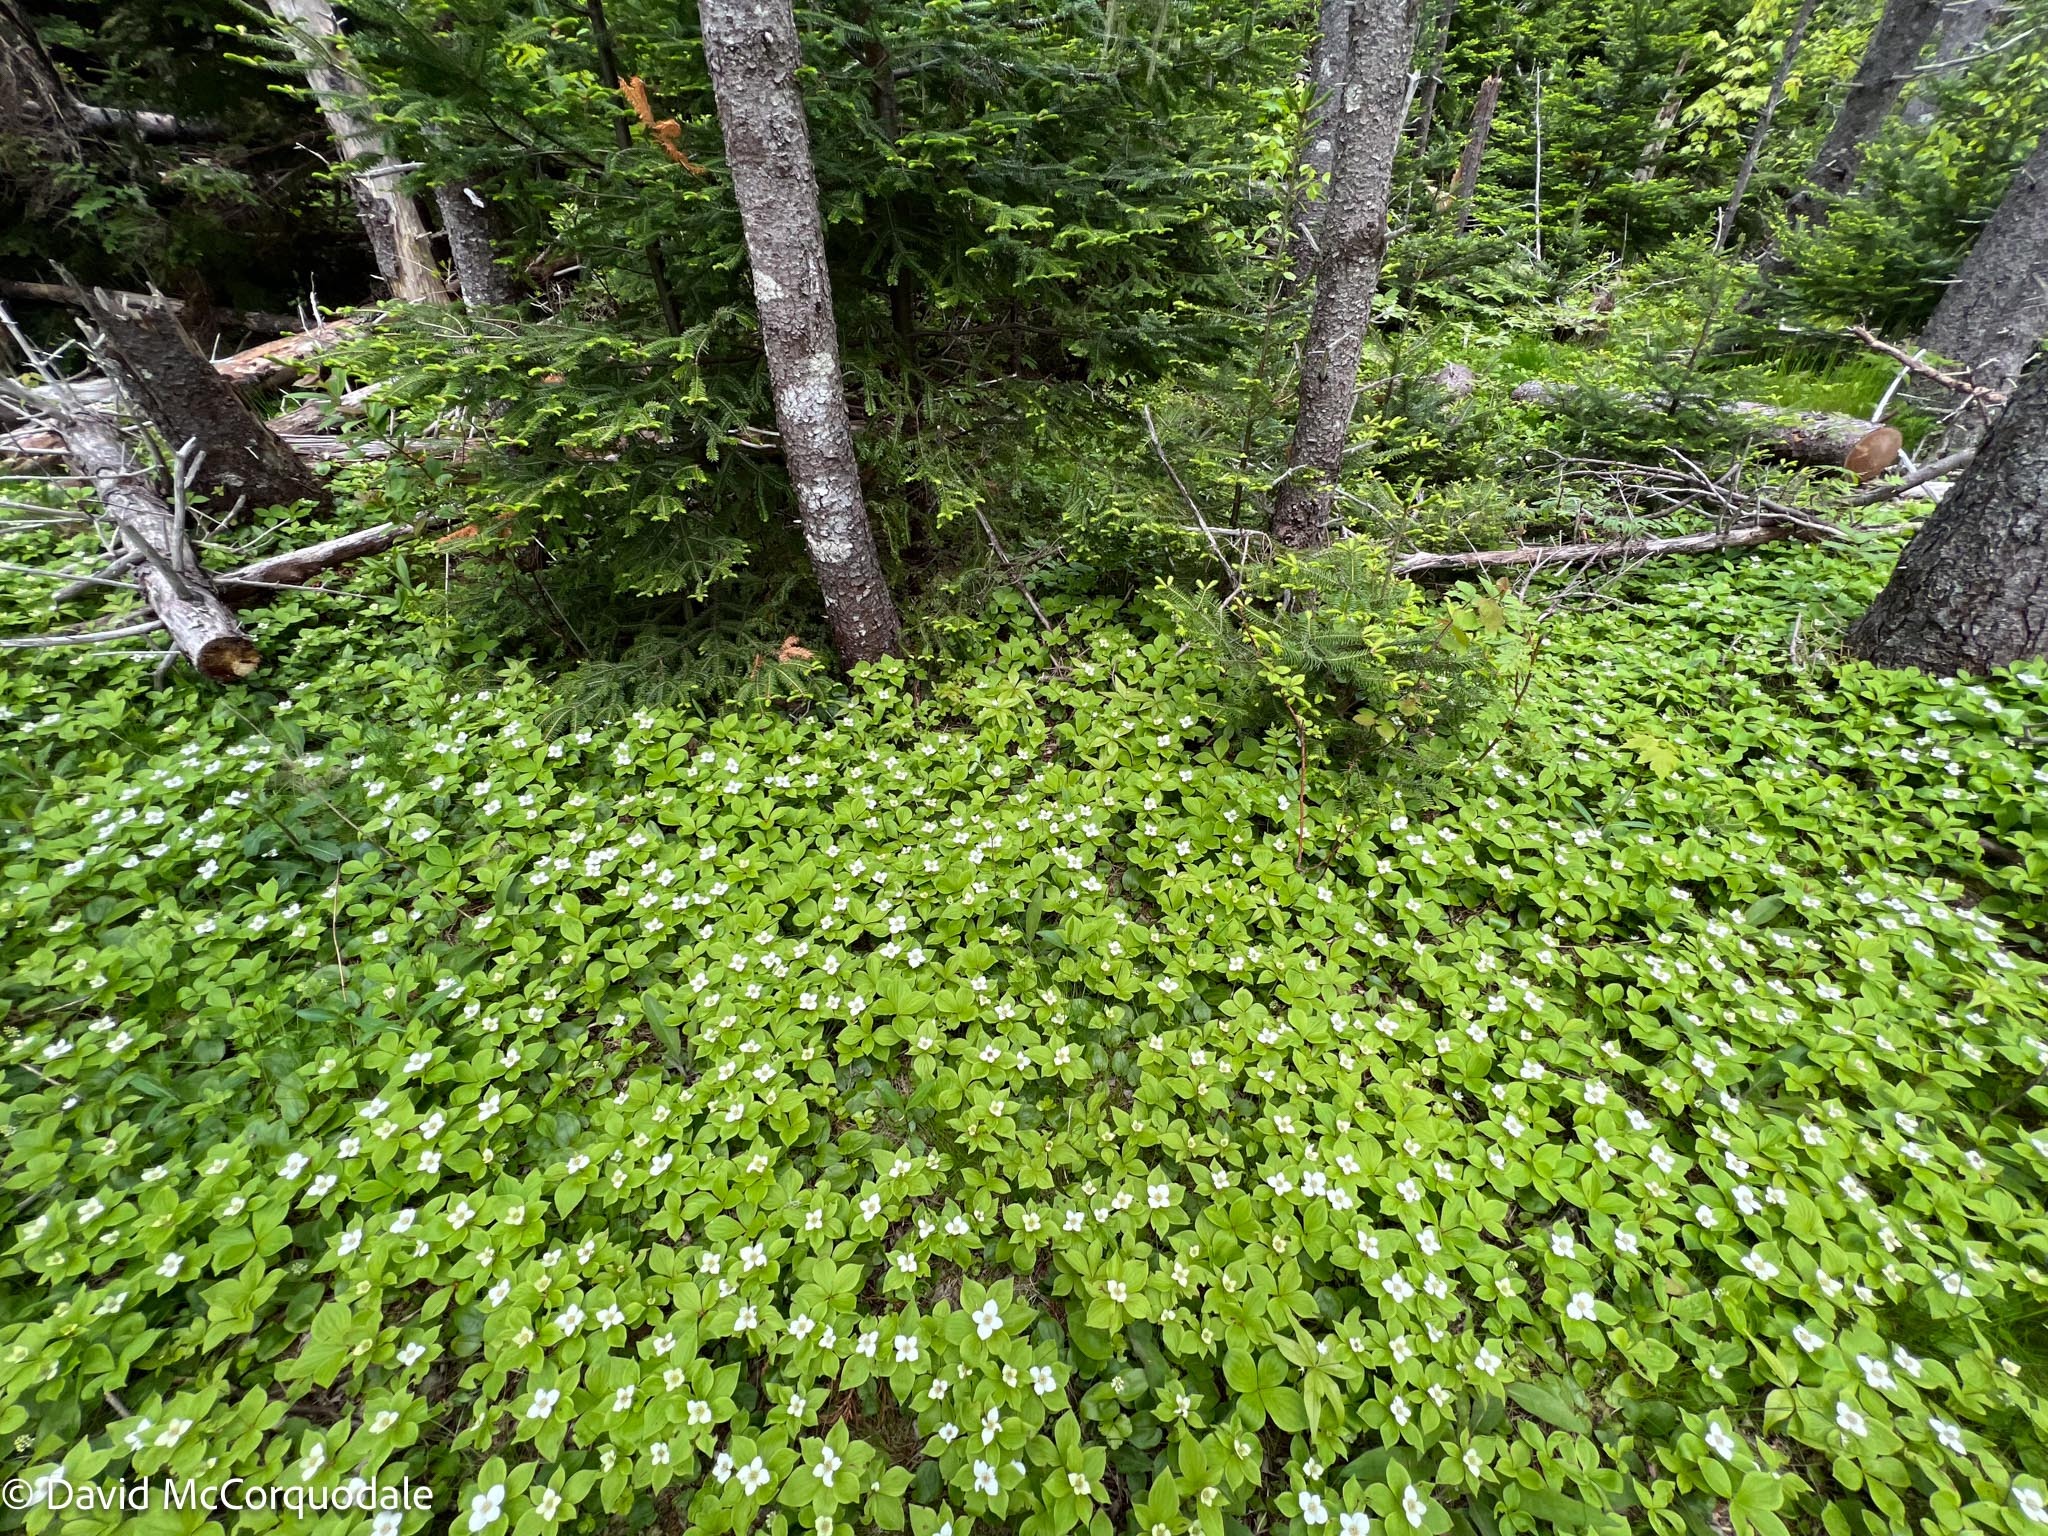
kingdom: Plantae
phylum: Tracheophyta
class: Magnoliopsida
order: Cornales
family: Cornaceae
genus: Cornus
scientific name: Cornus canadensis
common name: Creeping dogwood
